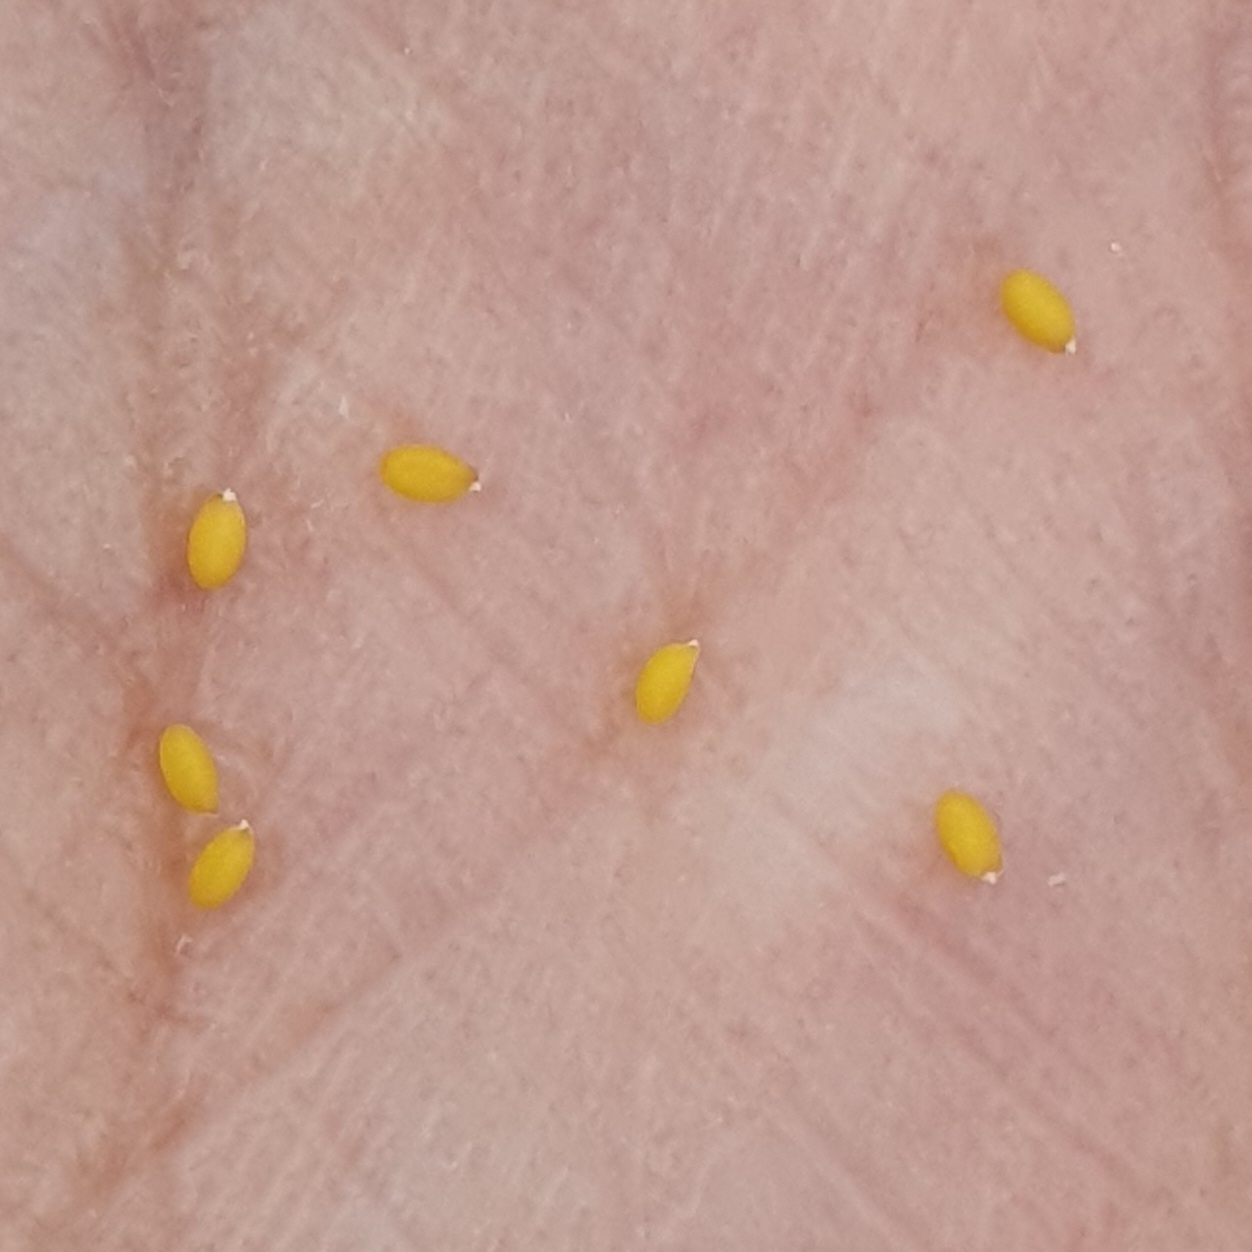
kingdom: Plantae
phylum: Tracheophyta
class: Magnoliopsida
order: Brassicales
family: Brassicaceae
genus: Bivonaea
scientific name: Bivonaea lutea
